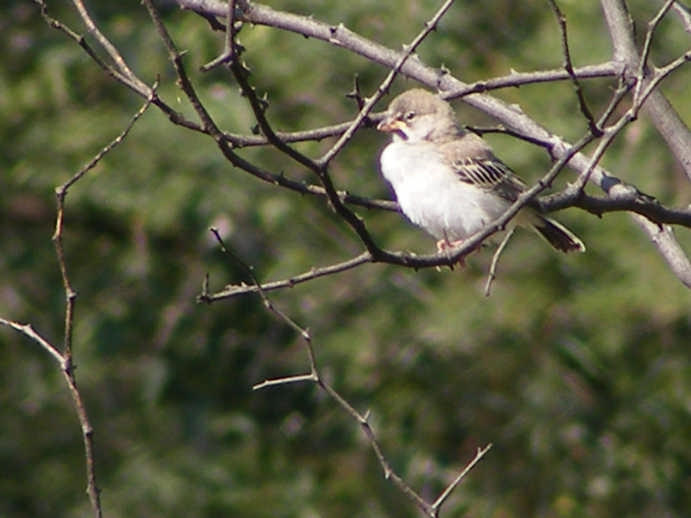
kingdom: Animalia
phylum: Chordata
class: Aves
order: Passeriformes
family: Ploceidae
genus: Sporopipes
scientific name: Sporopipes squamifrons
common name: Scaly-feathered weaver
